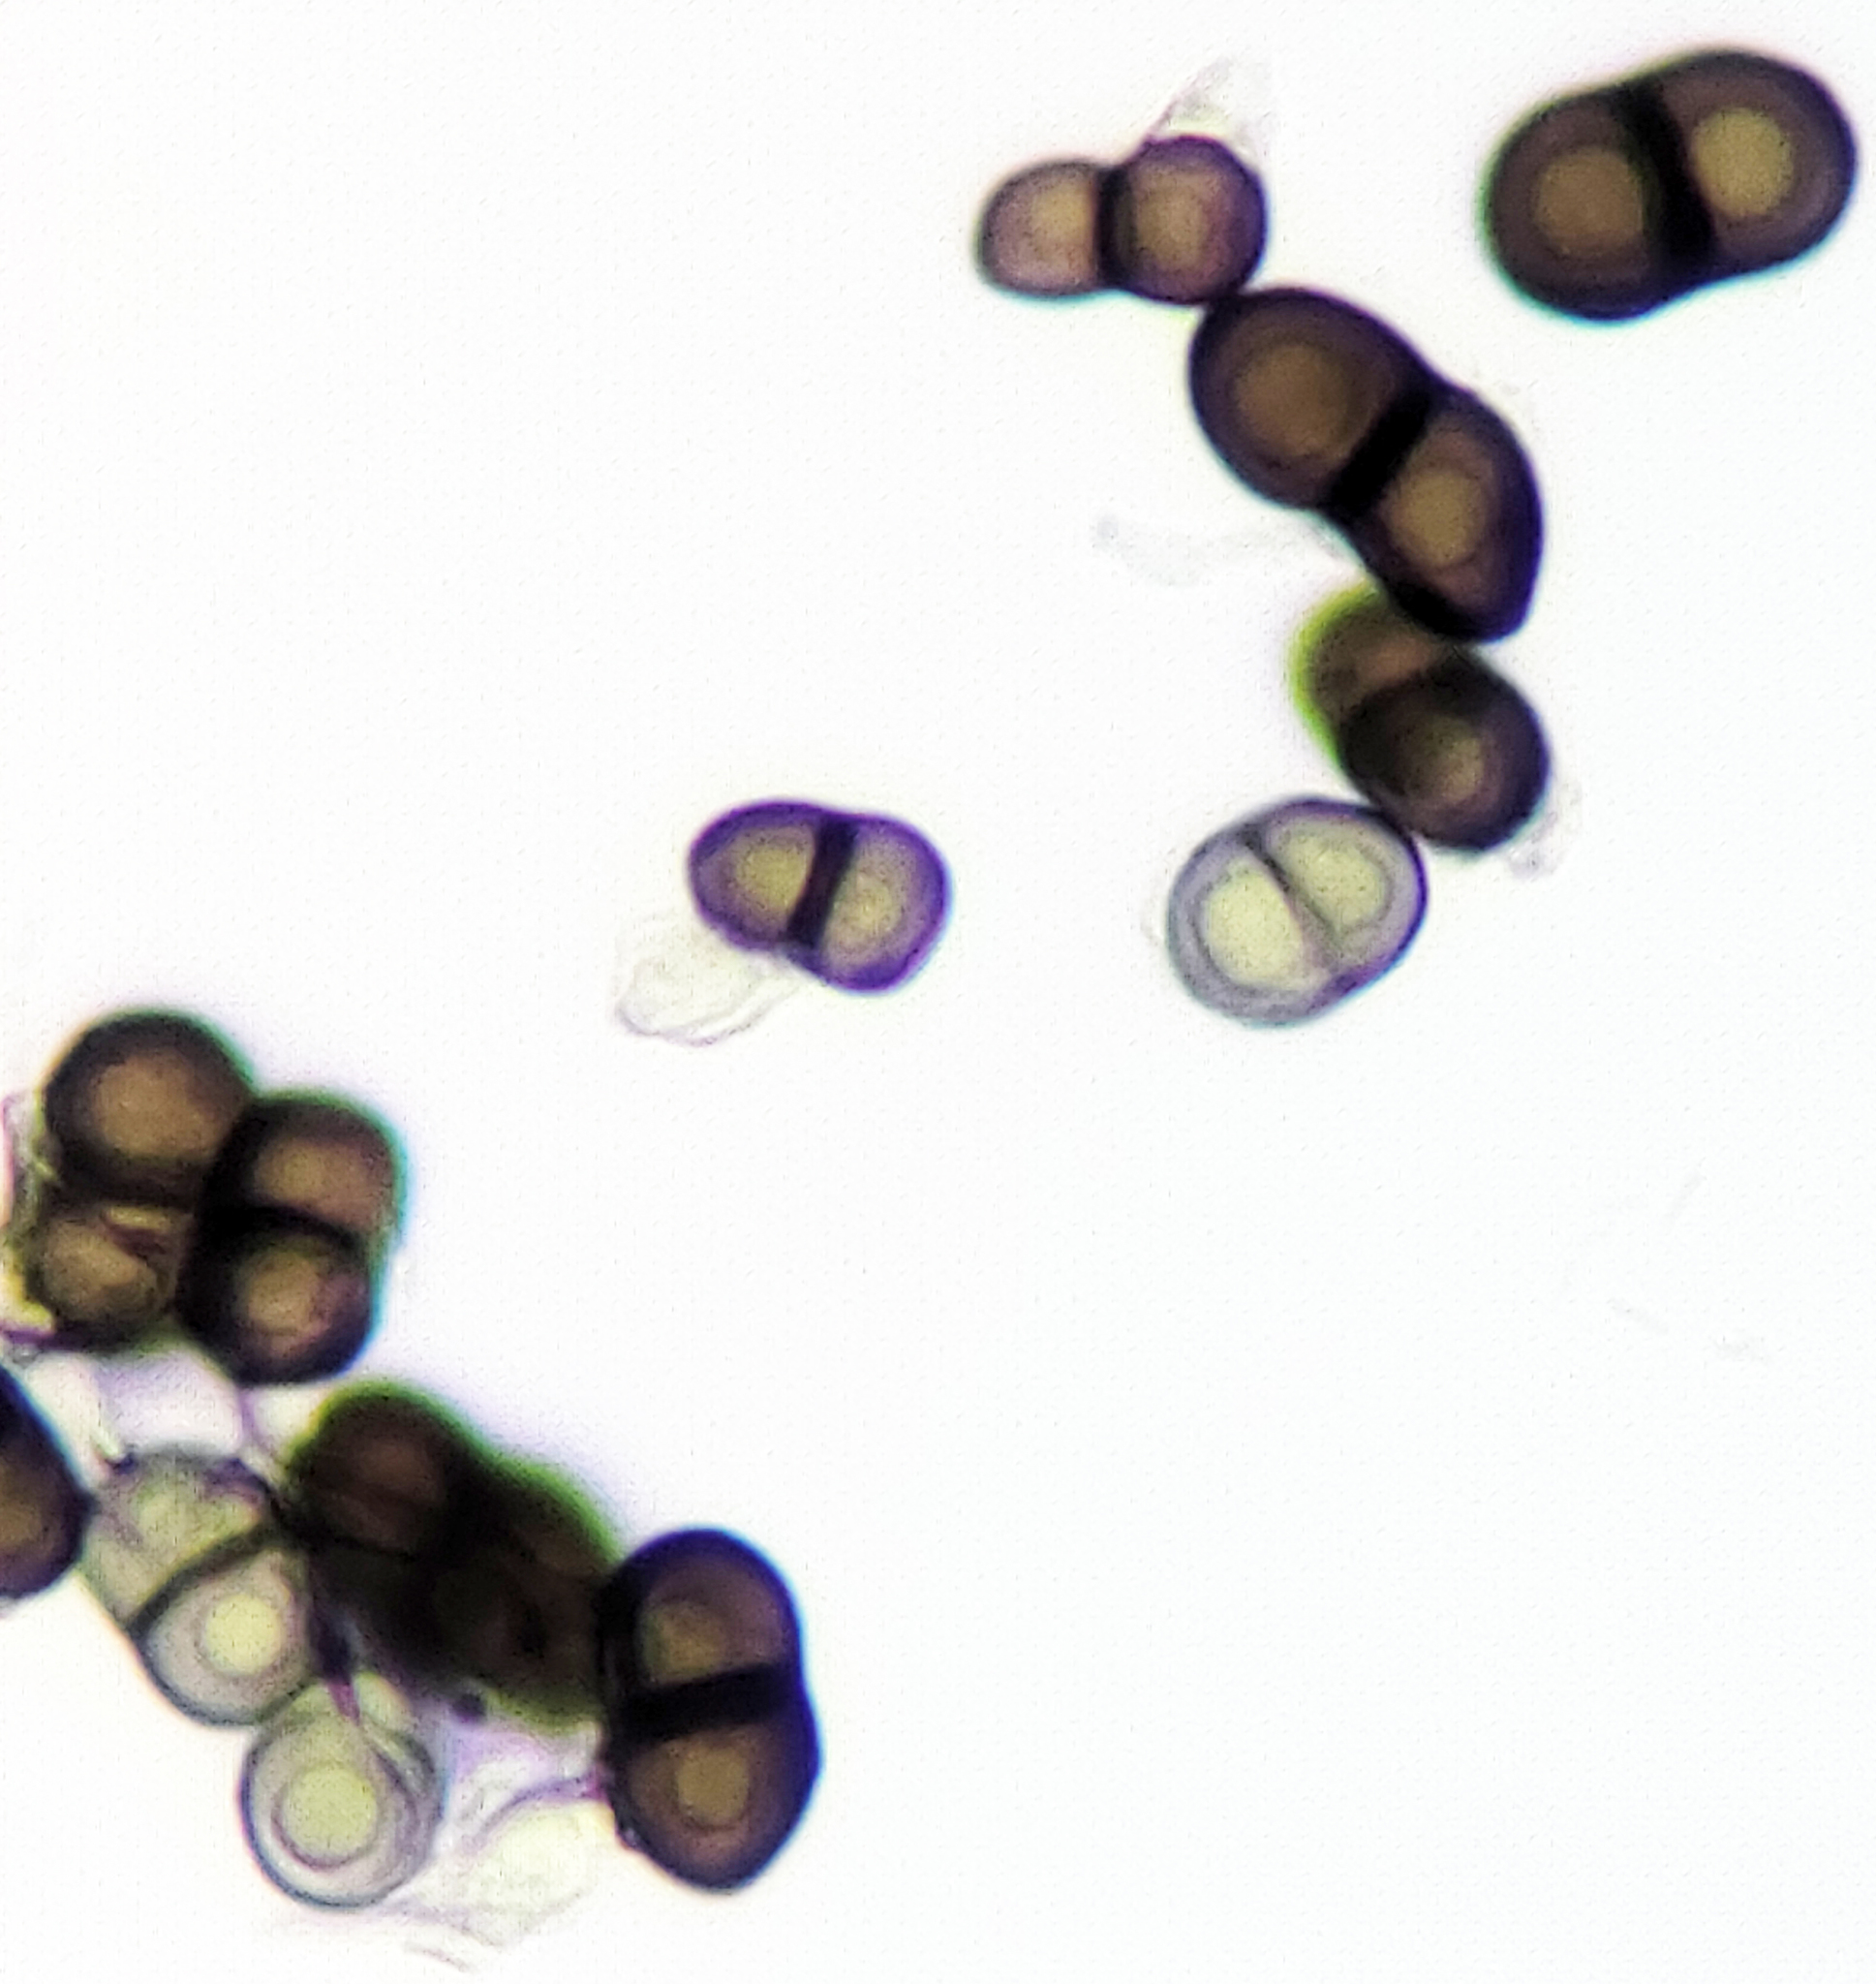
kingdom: Fungi
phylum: Ascomycota
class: Lecanoromycetes
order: Caliciales
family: Caliciaceae
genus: Calicium
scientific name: Calicium tigillare
